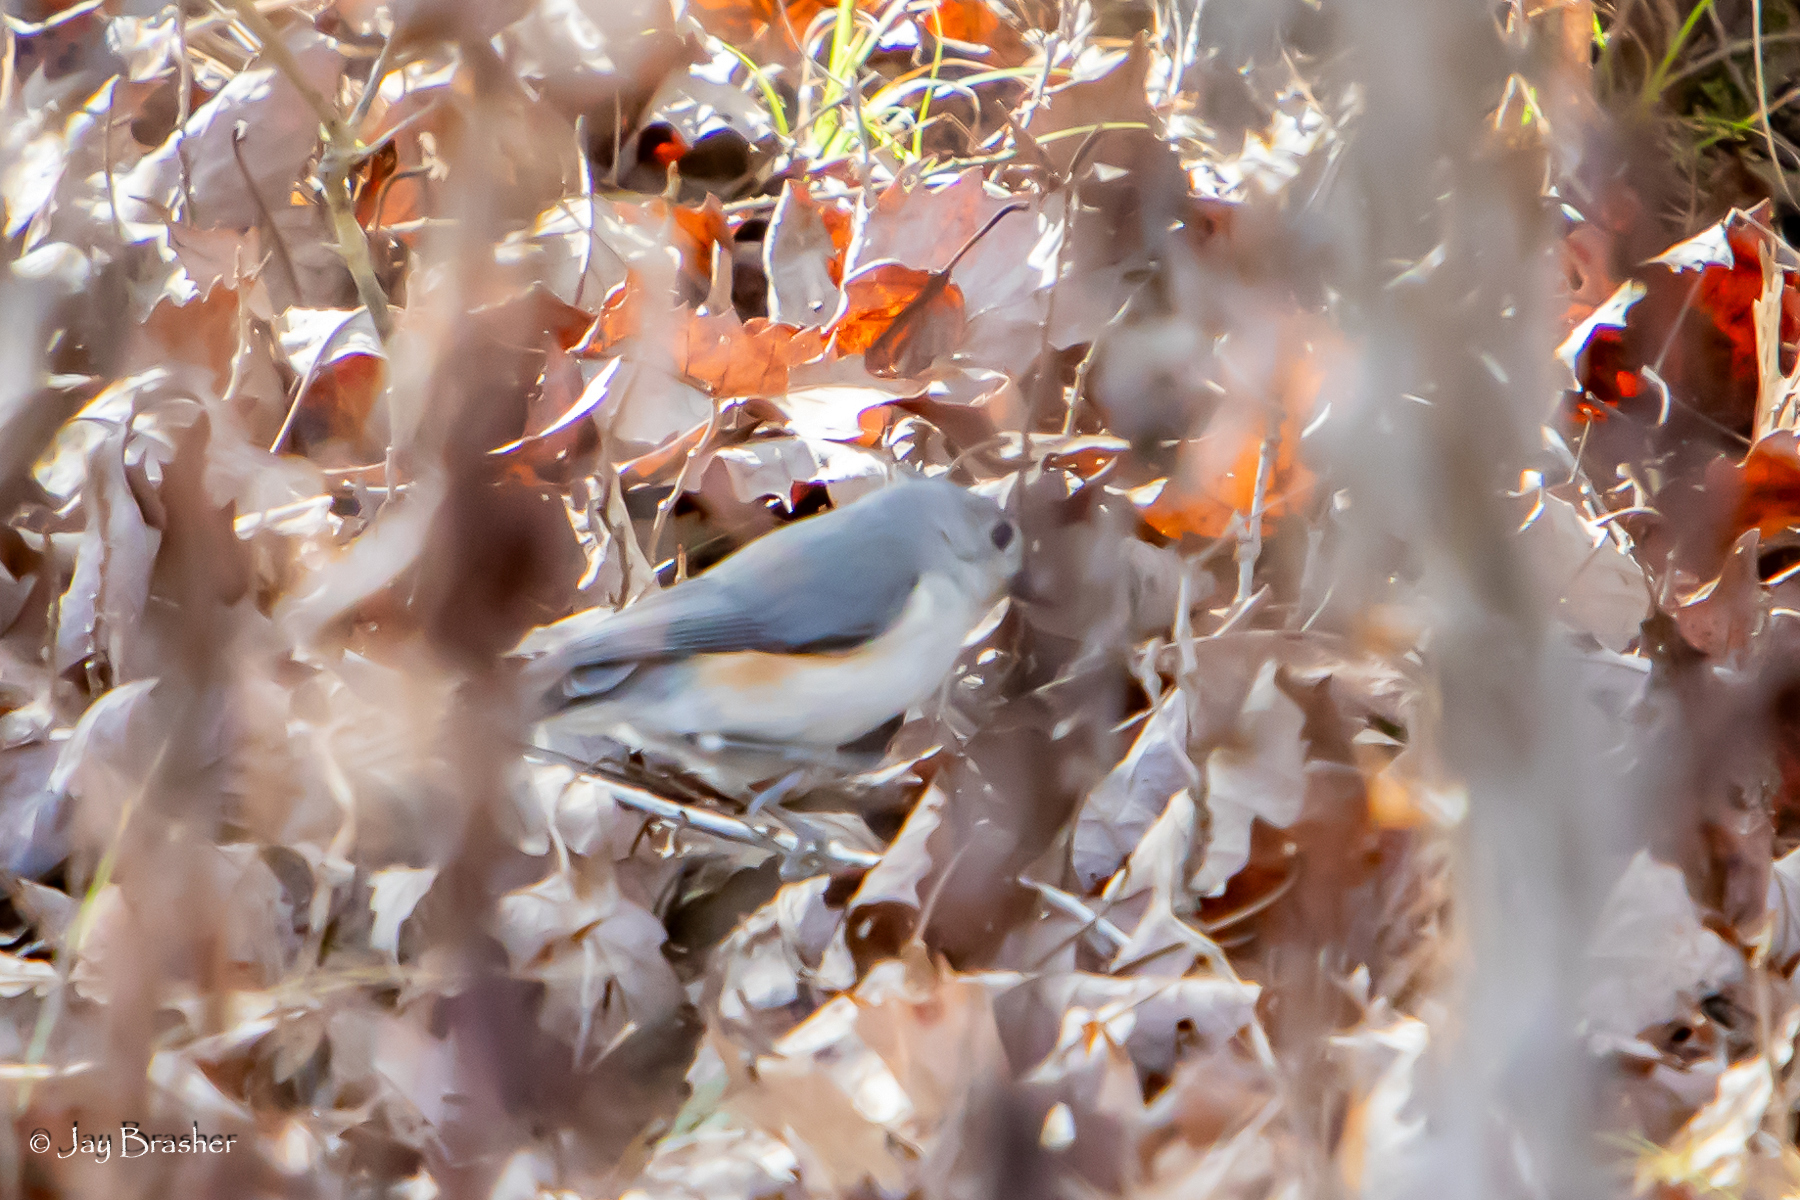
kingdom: Animalia
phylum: Chordata
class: Aves
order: Passeriformes
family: Paridae
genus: Baeolophus
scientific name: Baeolophus bicolor
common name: Tufted titmouse
